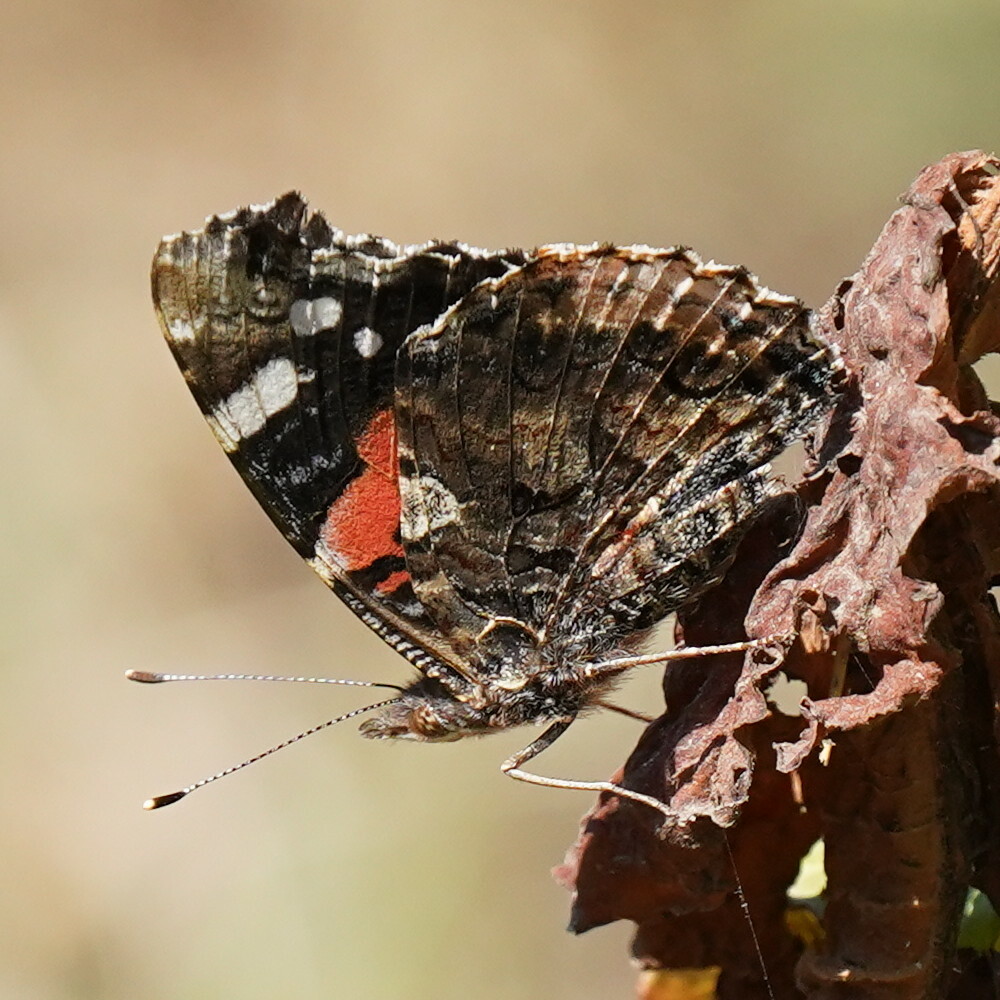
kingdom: Animalia
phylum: Arthropoda
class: Insecta
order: Lepidoptera
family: Nymphalidae
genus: Vanessa
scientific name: Vanessa atalanta
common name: Red admiral
